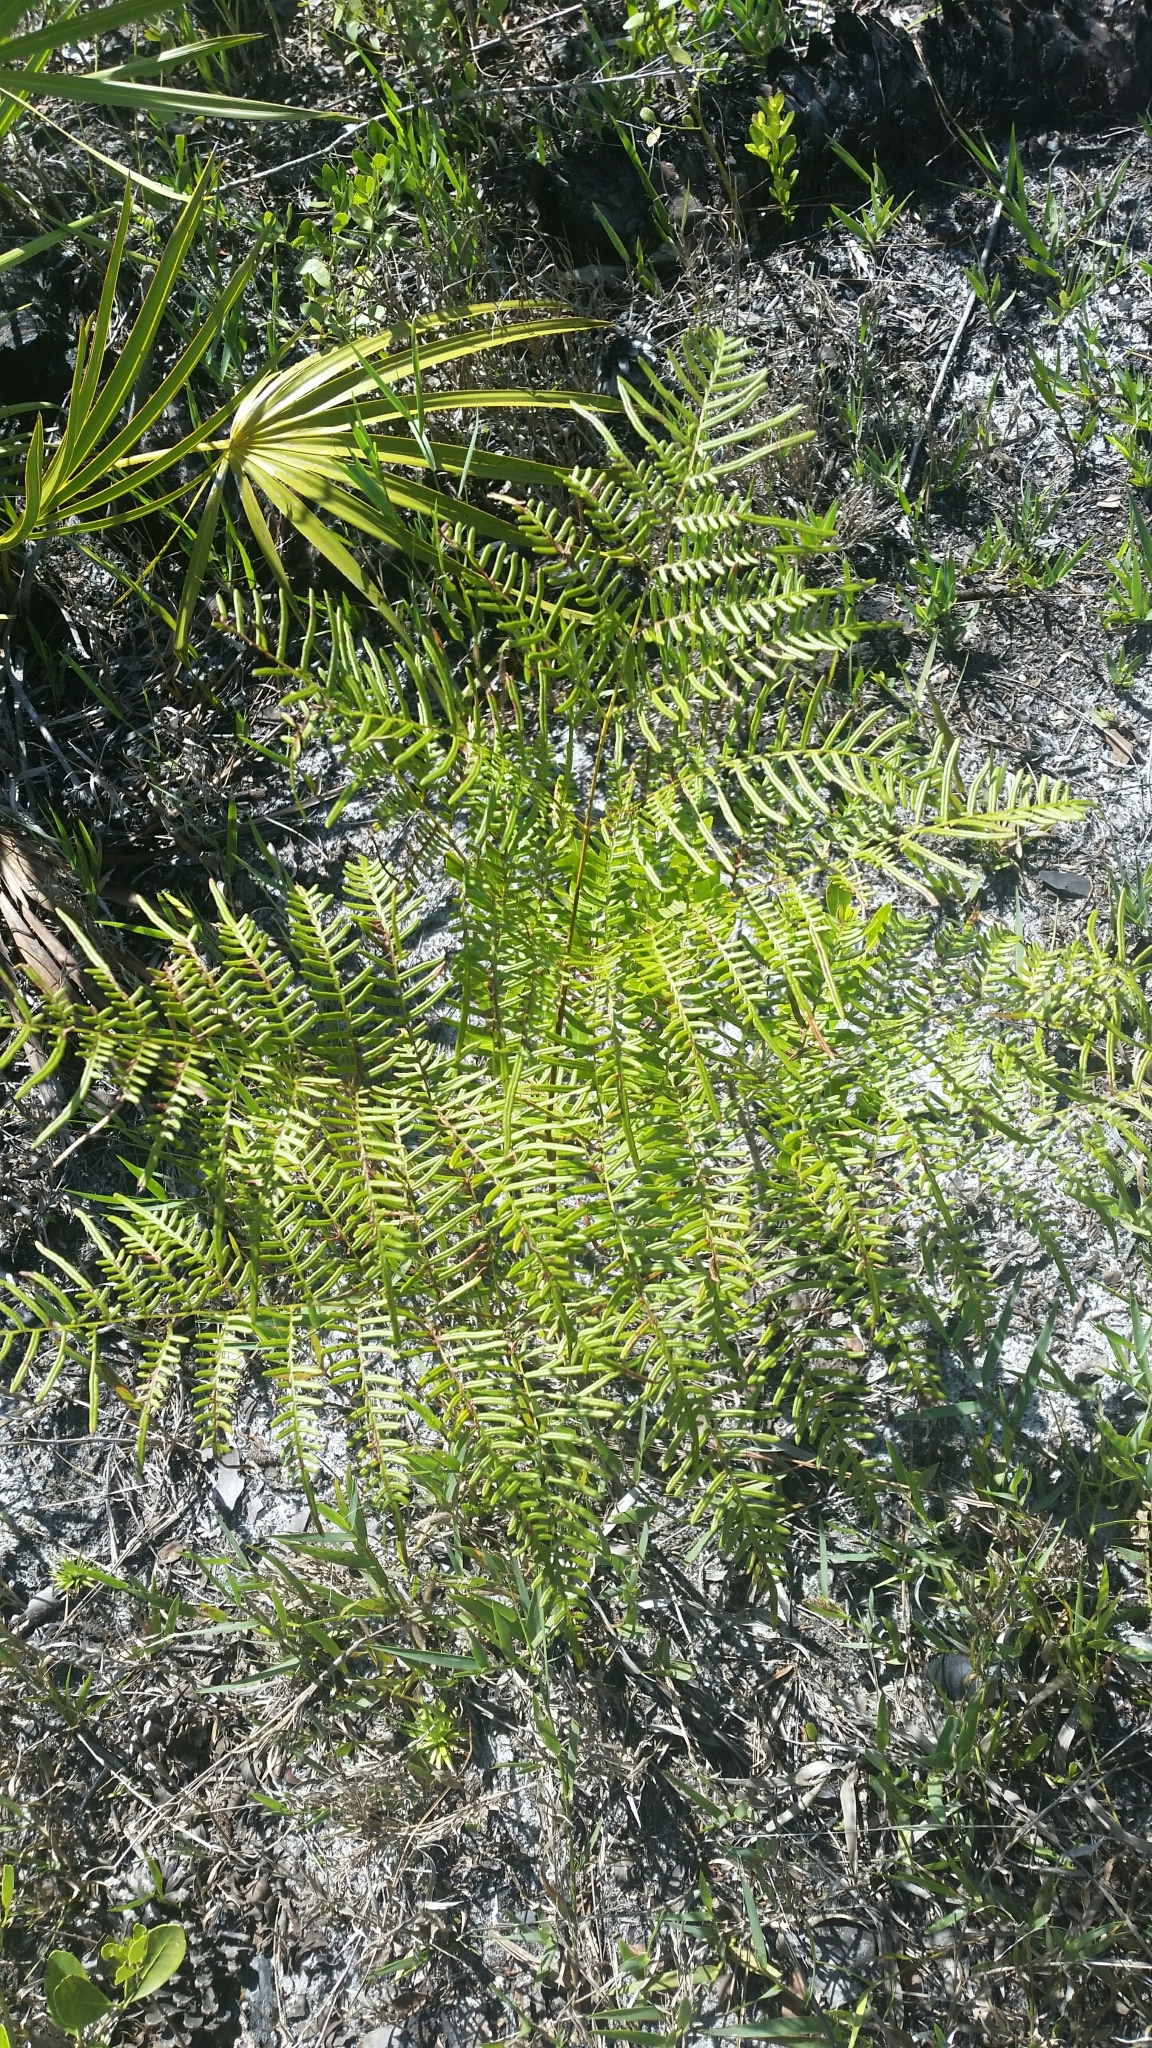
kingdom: Plantae
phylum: Tracheophyta
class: Polypodiopsida
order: Polypodiales
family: Dennstaedtiaceae
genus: Pteridium
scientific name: Pteridium
